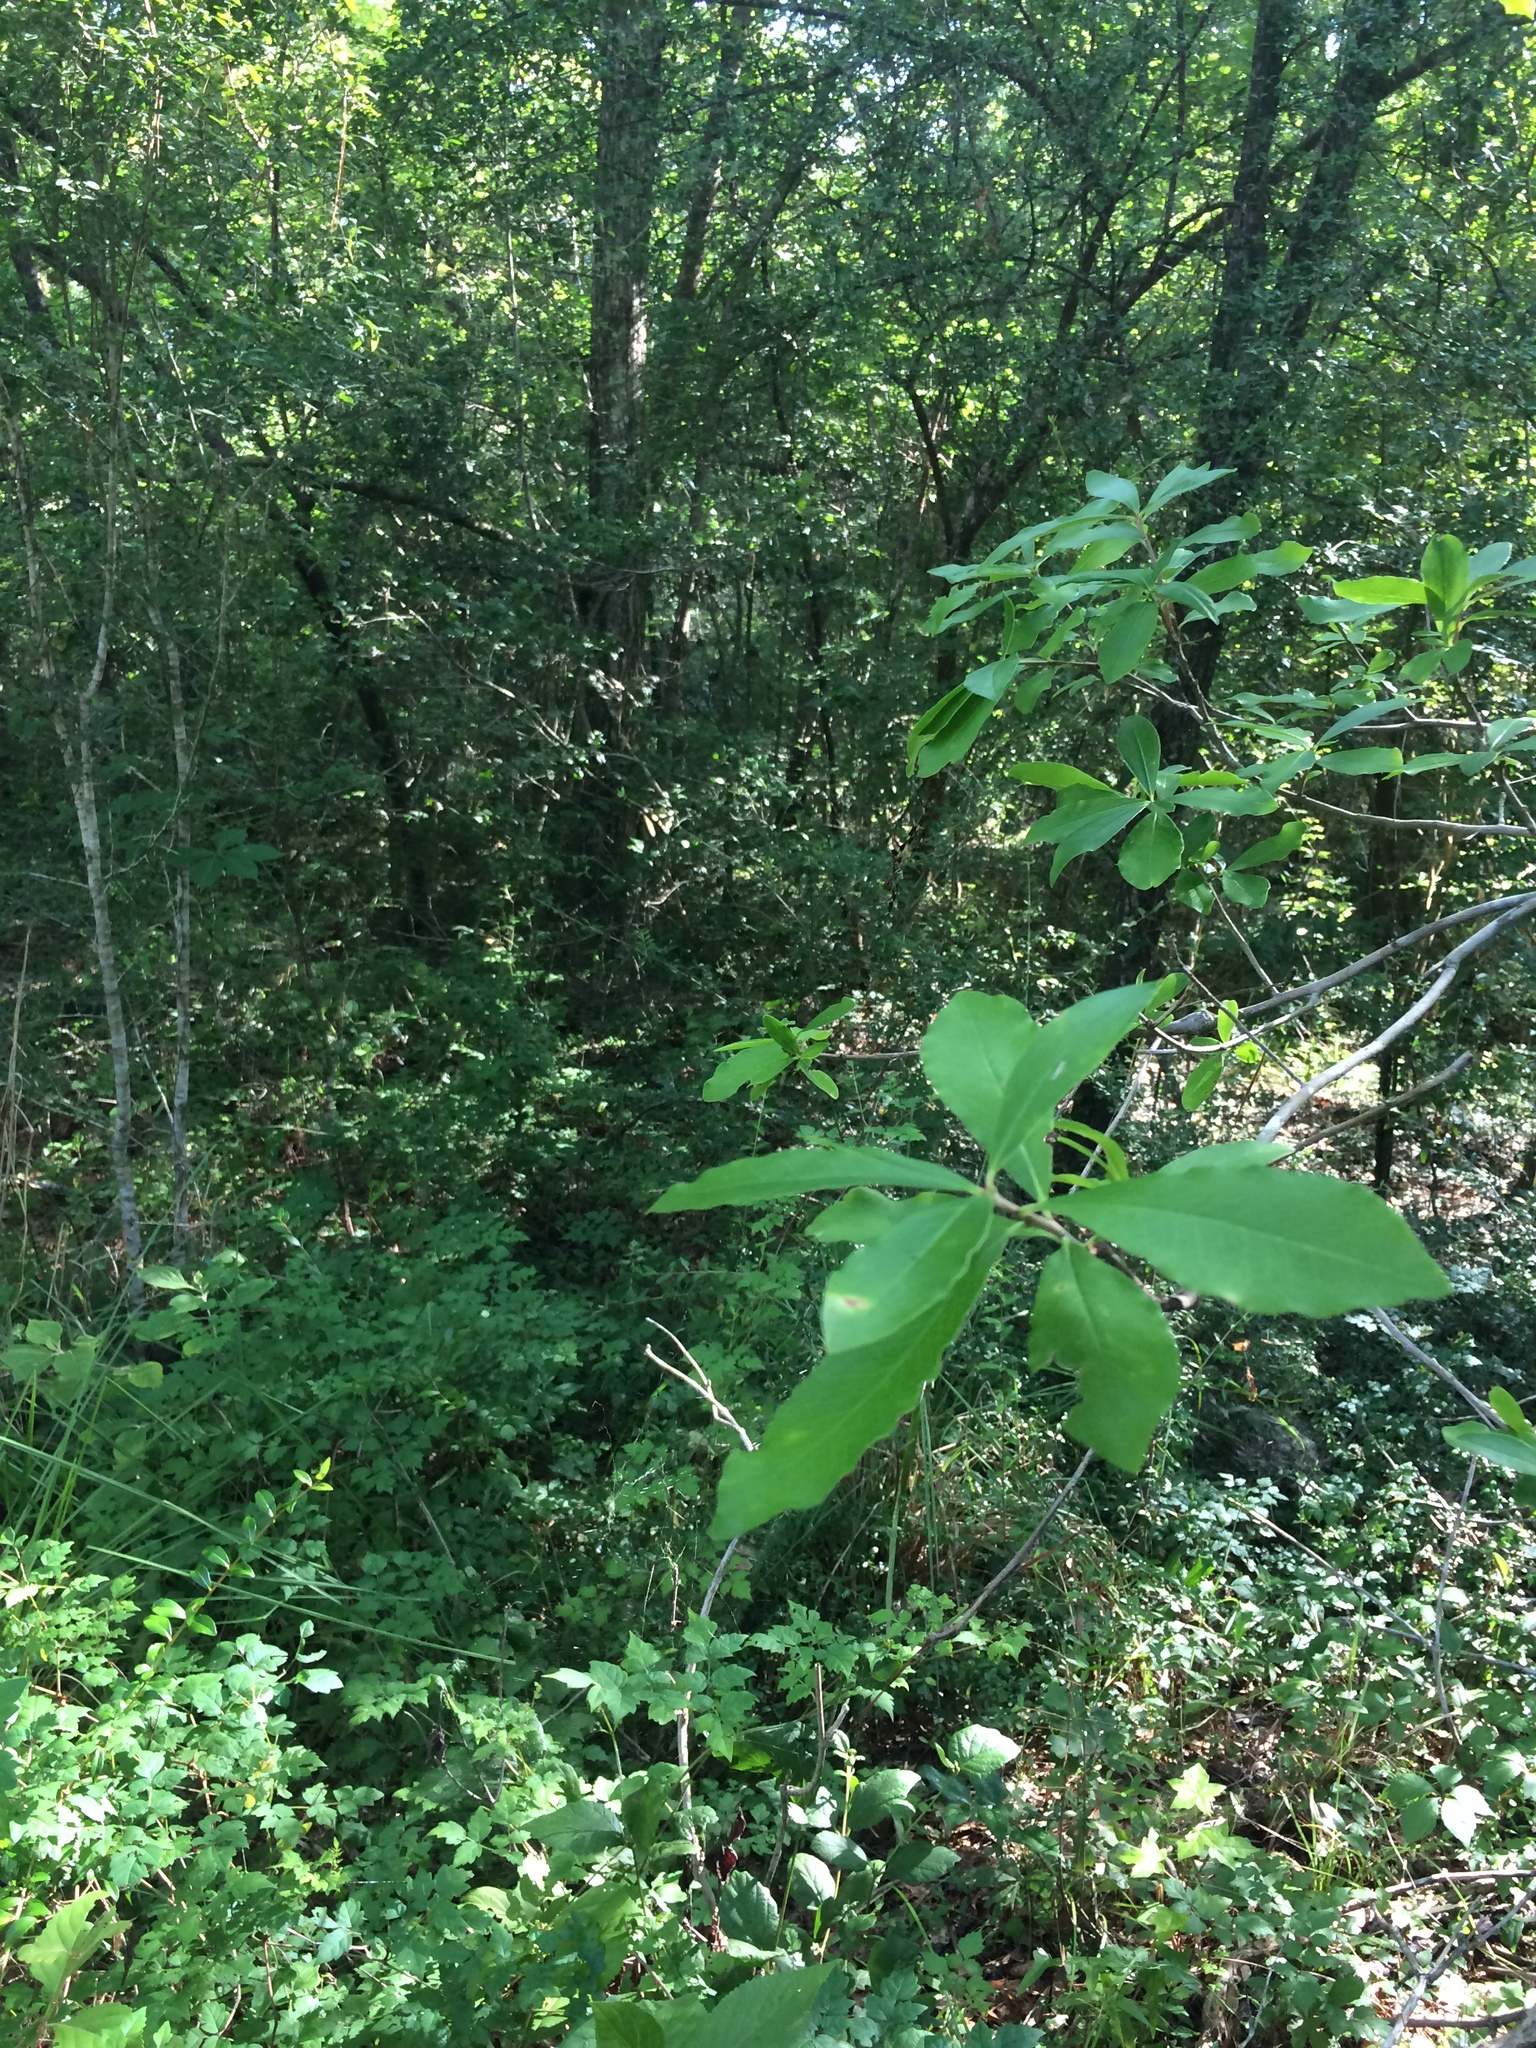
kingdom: Plantae
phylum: Tracheophyta
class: Liliopsida
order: Poales
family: Cyperaceae
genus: Carex
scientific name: Carex intumescens
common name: Greater bladder sedge
